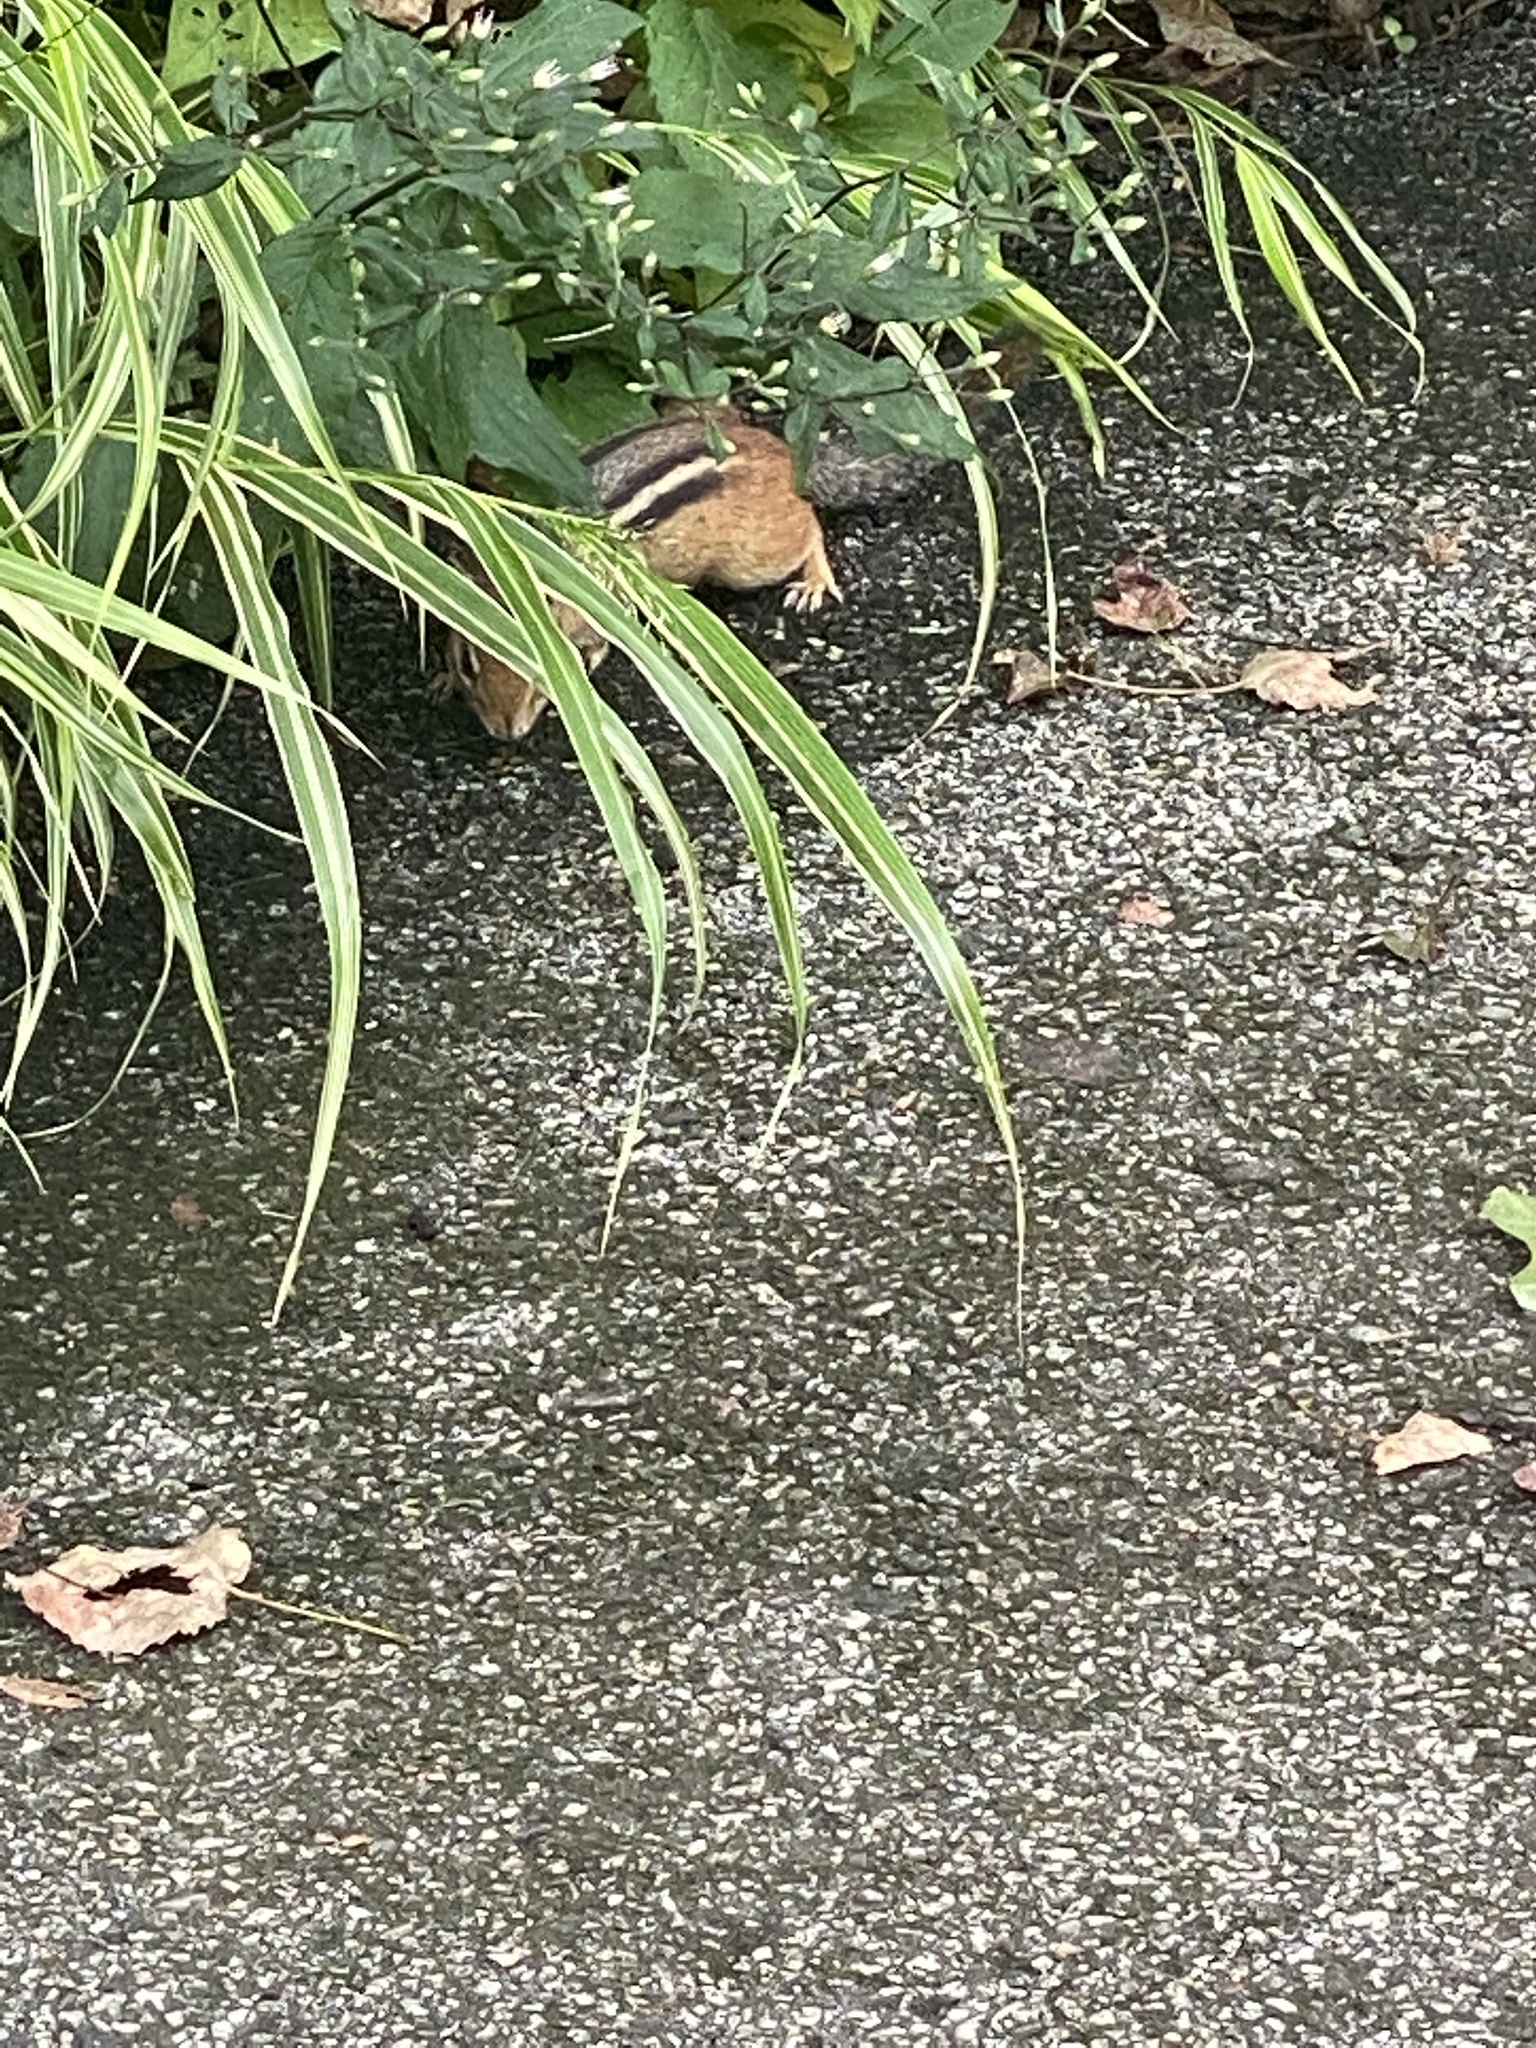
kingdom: Animalia
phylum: Chordata
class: Mammalia
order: Rodentia
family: Sciuridae
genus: Tamias
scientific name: Tamias striatus
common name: Eastern chipmunk
